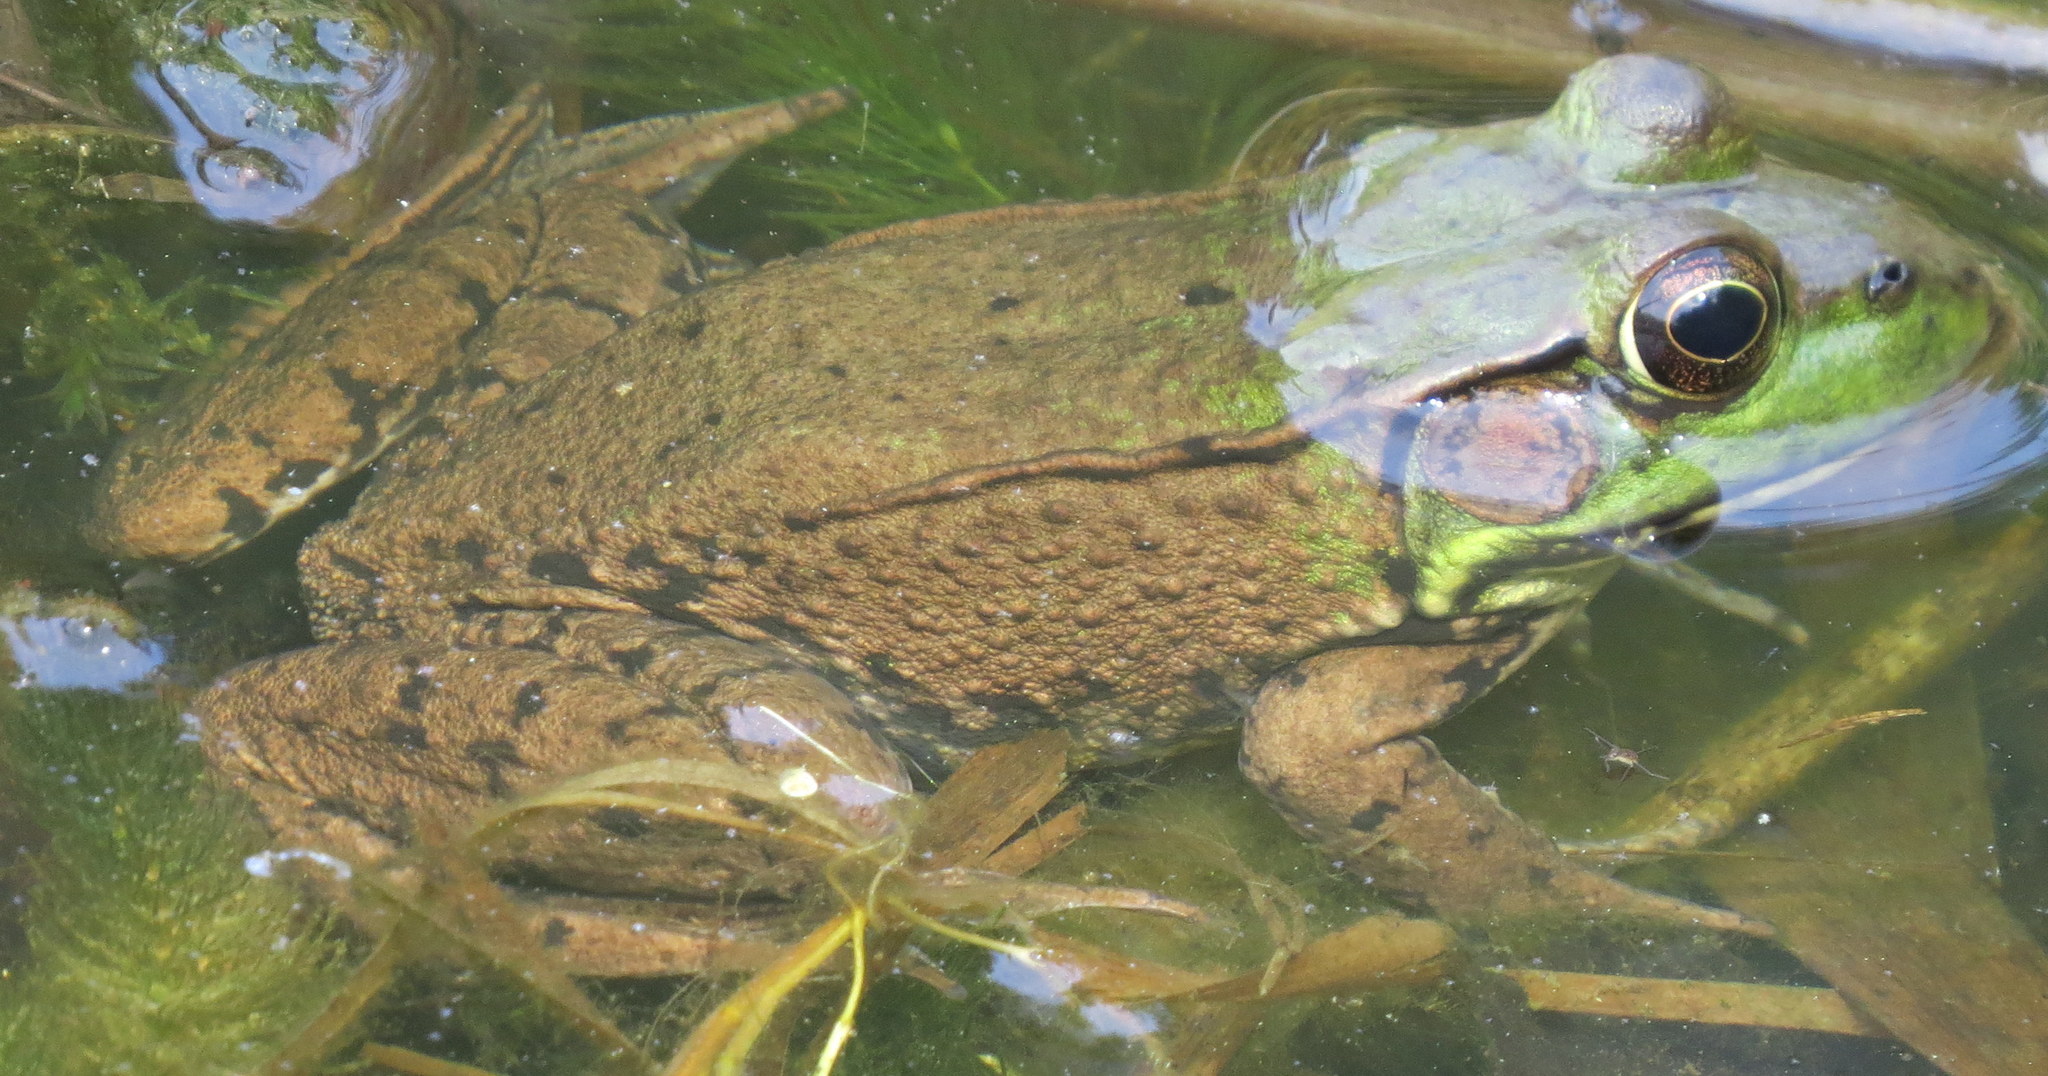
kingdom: Animalia
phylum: Chordata
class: Amphibia
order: Anura
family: Ranidae
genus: Lithobates
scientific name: Lithobates clamitans
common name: Green frog
